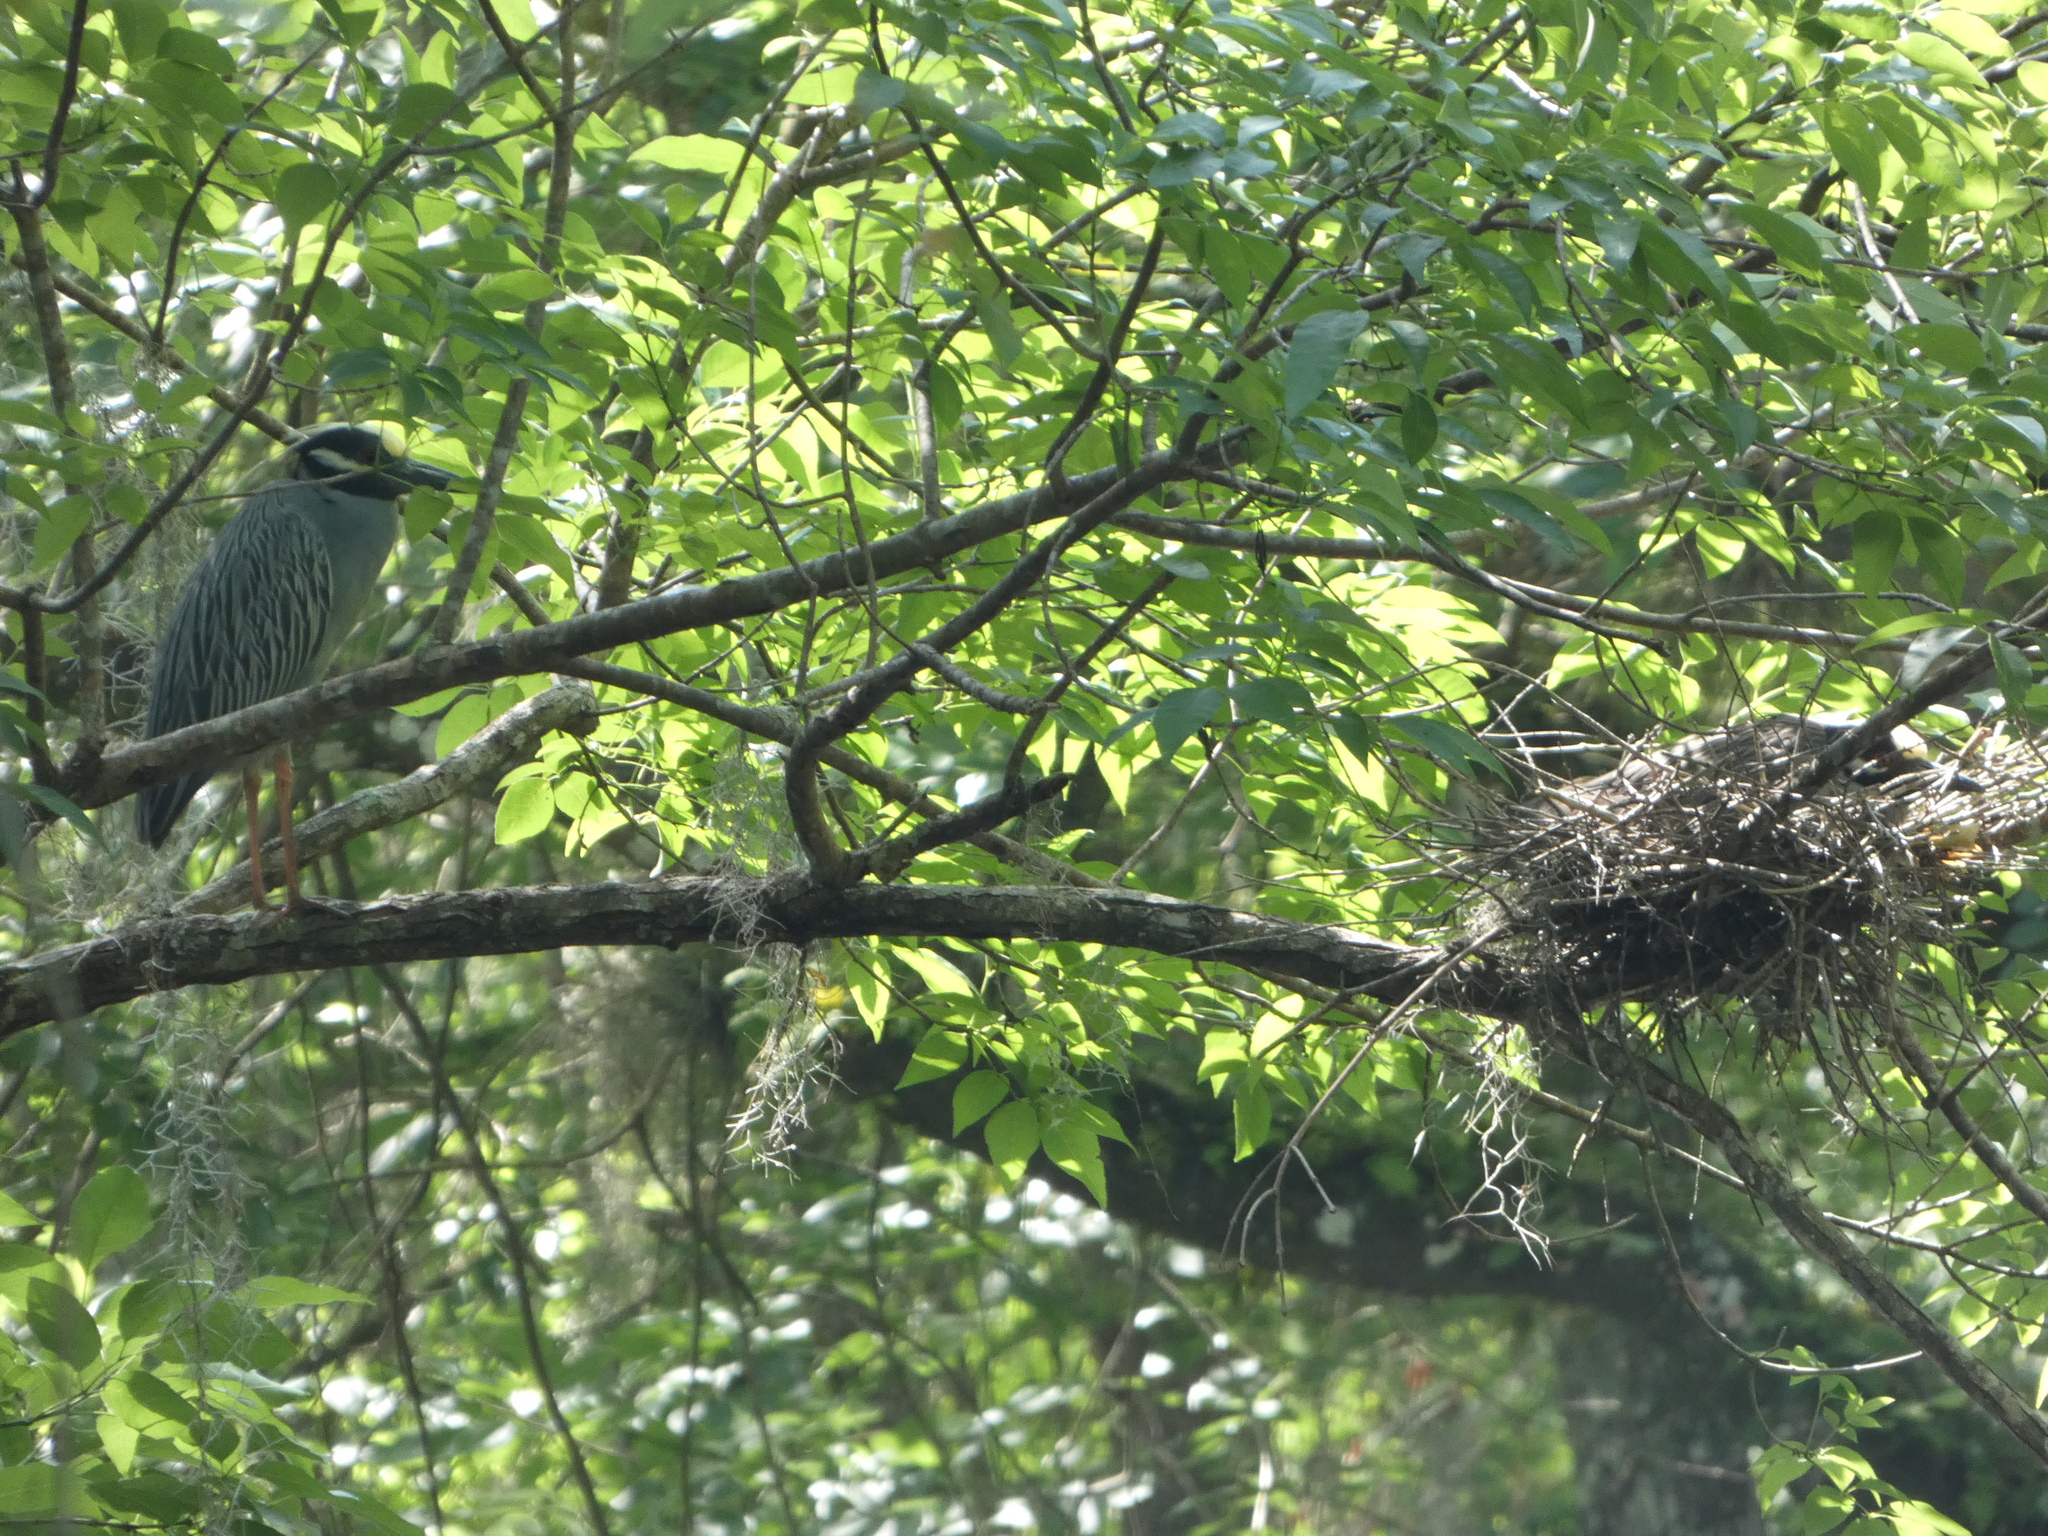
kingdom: Animalia
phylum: Chordata
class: Aves
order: Pelecaniformes
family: Ardeidae
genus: Nyctanassa
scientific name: Nyctanassa violacea
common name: Yellow-crowned night heron
